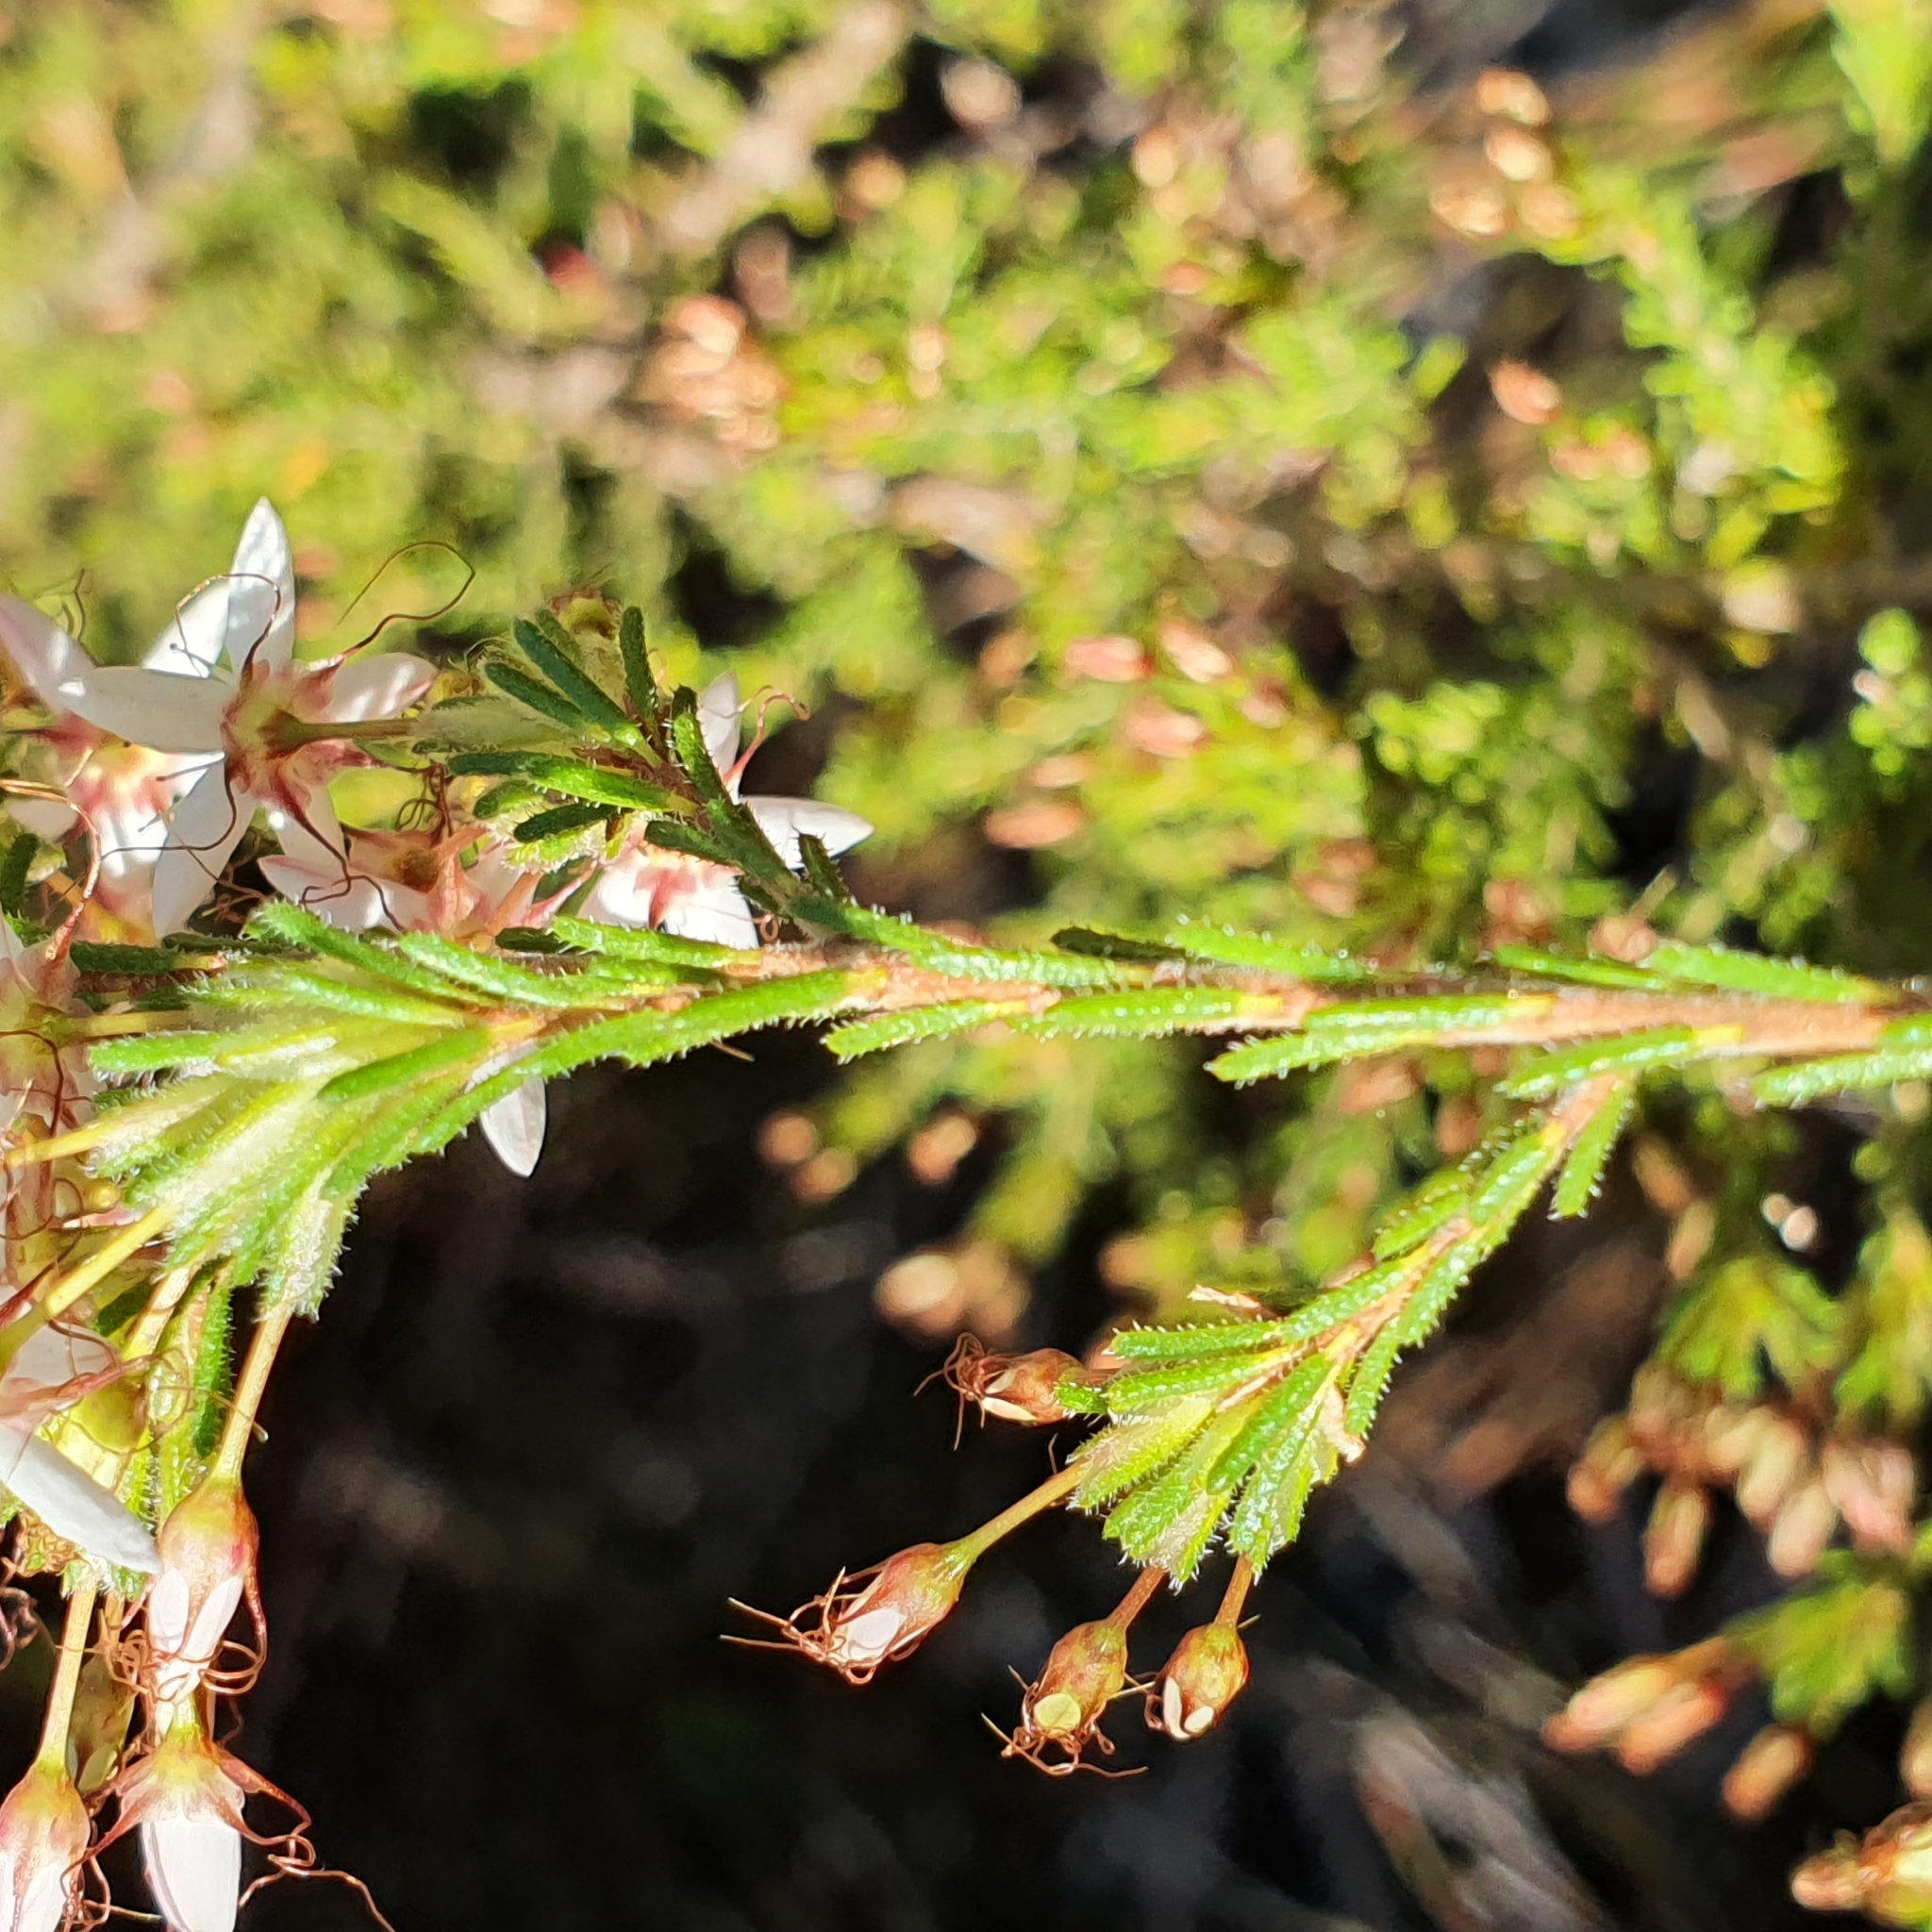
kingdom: Plantae
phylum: Tracheophyta
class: Magnoliopsida
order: Myrtales
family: Myrtaceae
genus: Calytrix
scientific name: Calytrix tetragona
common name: Common fringe myrtle
